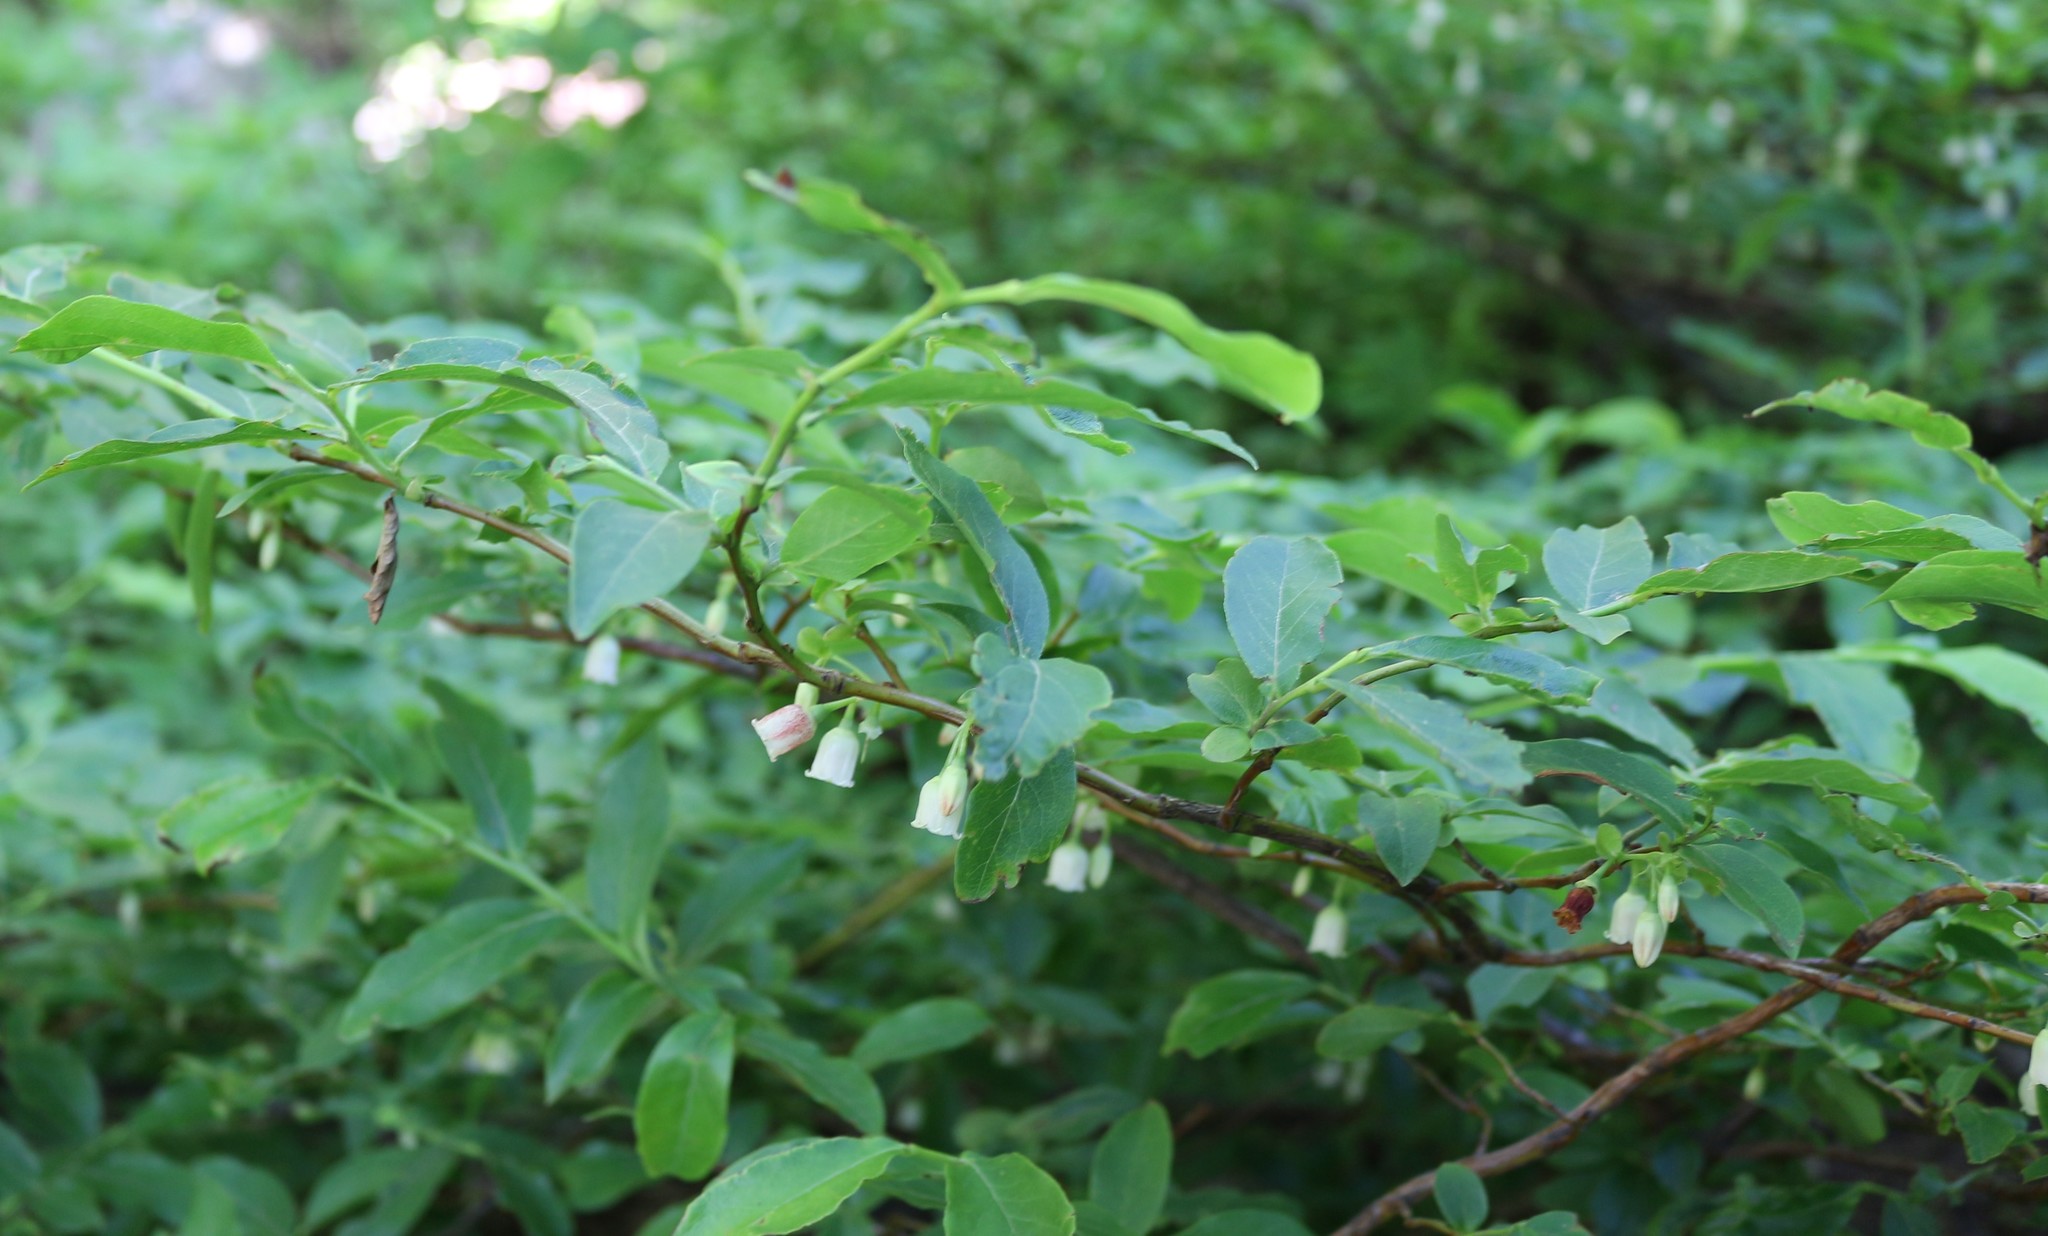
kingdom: Plantae
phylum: Tracheophyta
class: Magnoliopsida
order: Ericales
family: Ericaceae
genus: Vaccinium
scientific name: Vaccinium arctostaphylos
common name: Caucasian whortleberry
